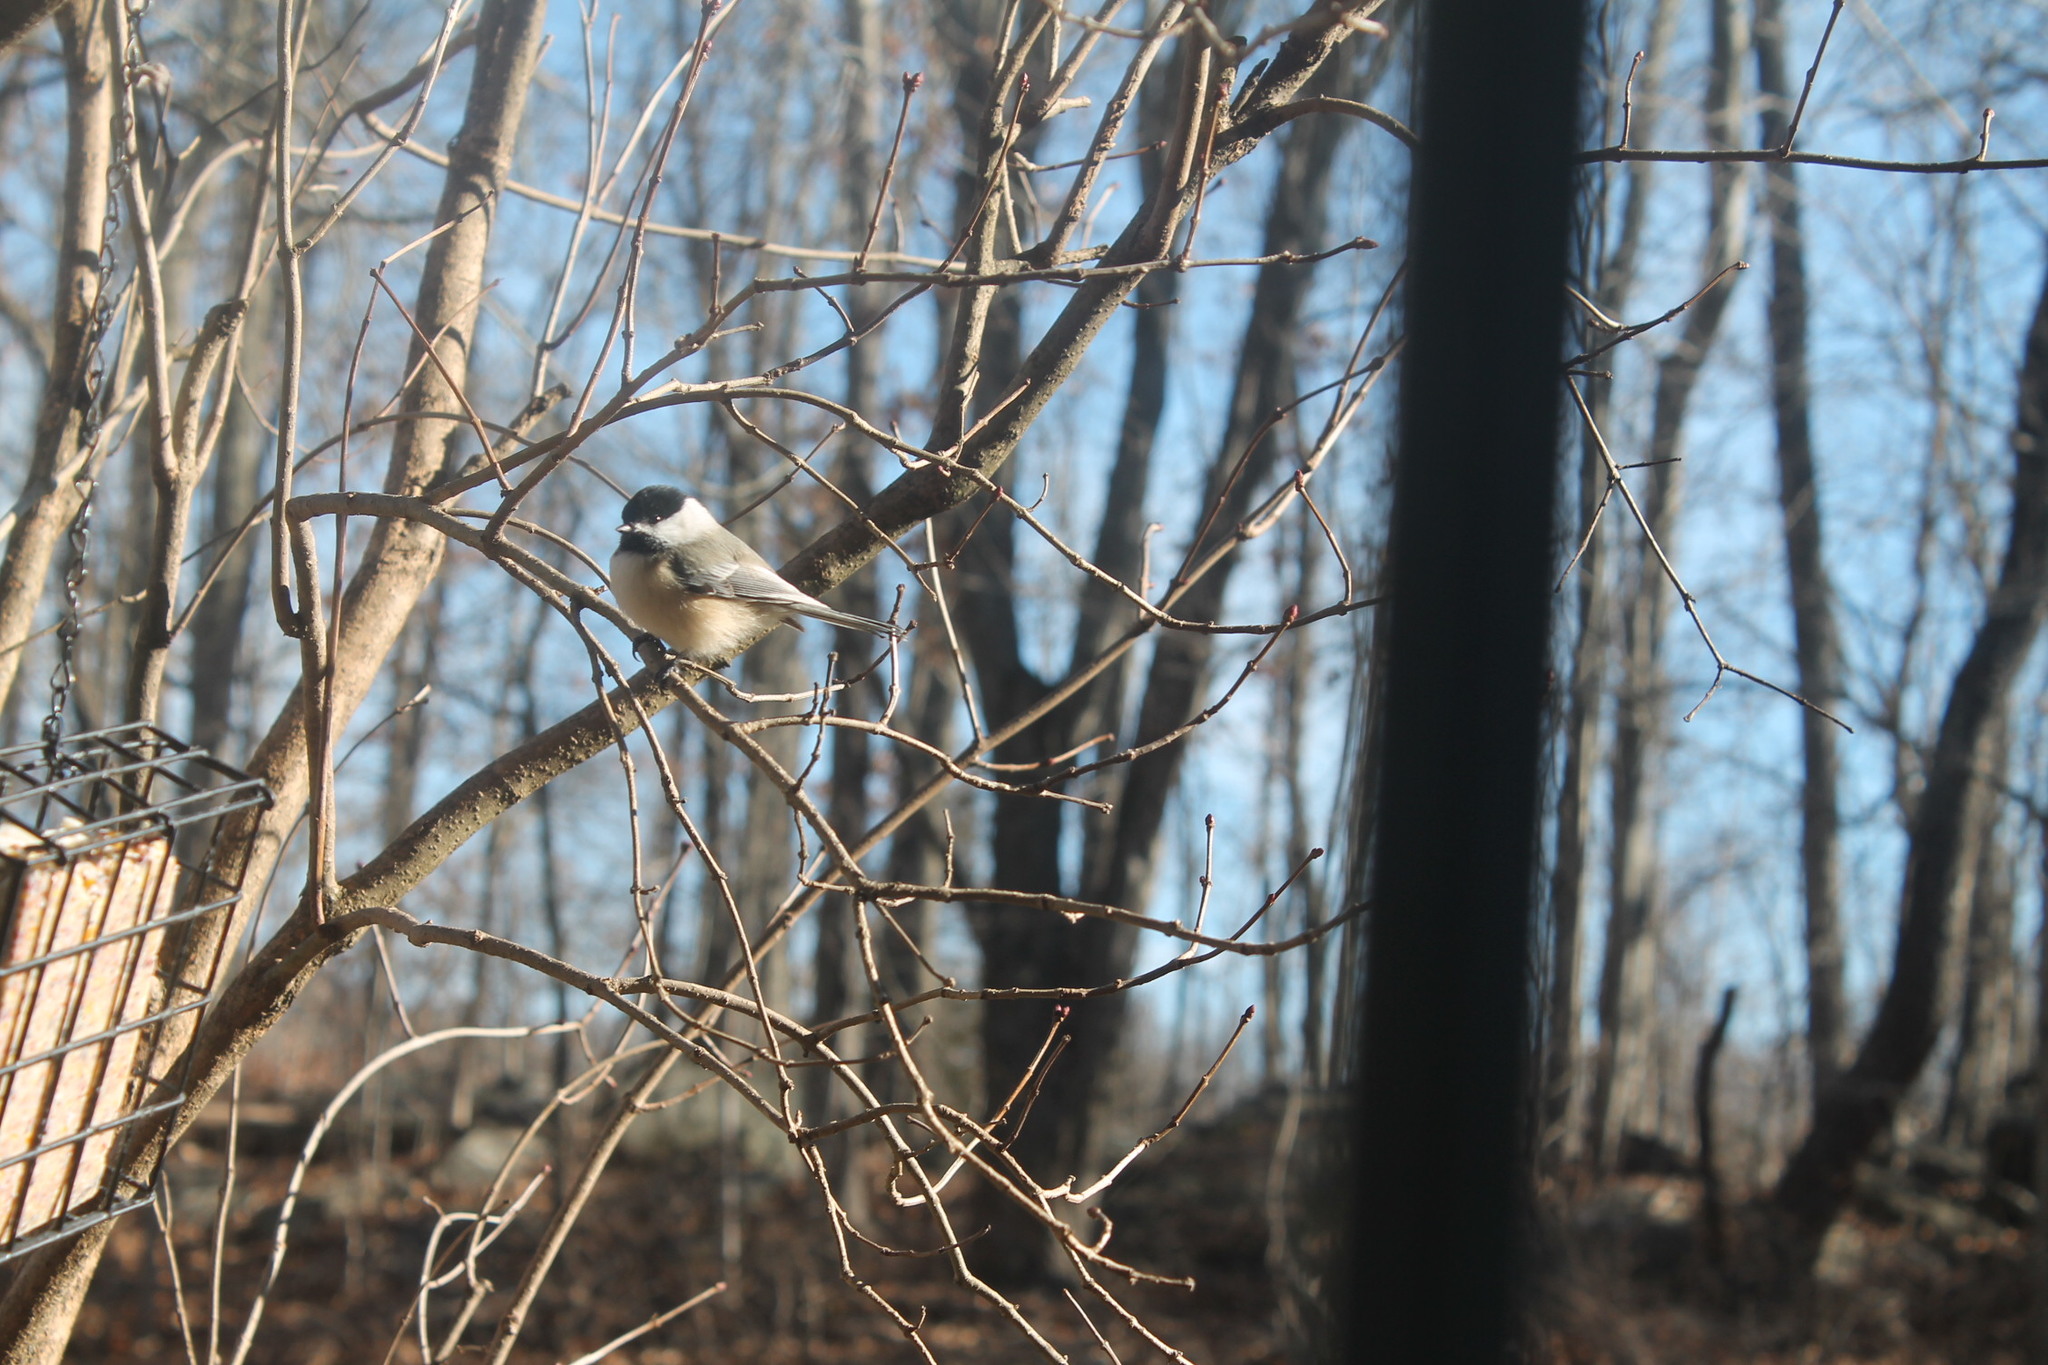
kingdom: Animalia
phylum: Chordata
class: Aves
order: Passeriformes
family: Paridae
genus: Poecile
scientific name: Poecile atricapillus
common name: Black-capped chickadee
